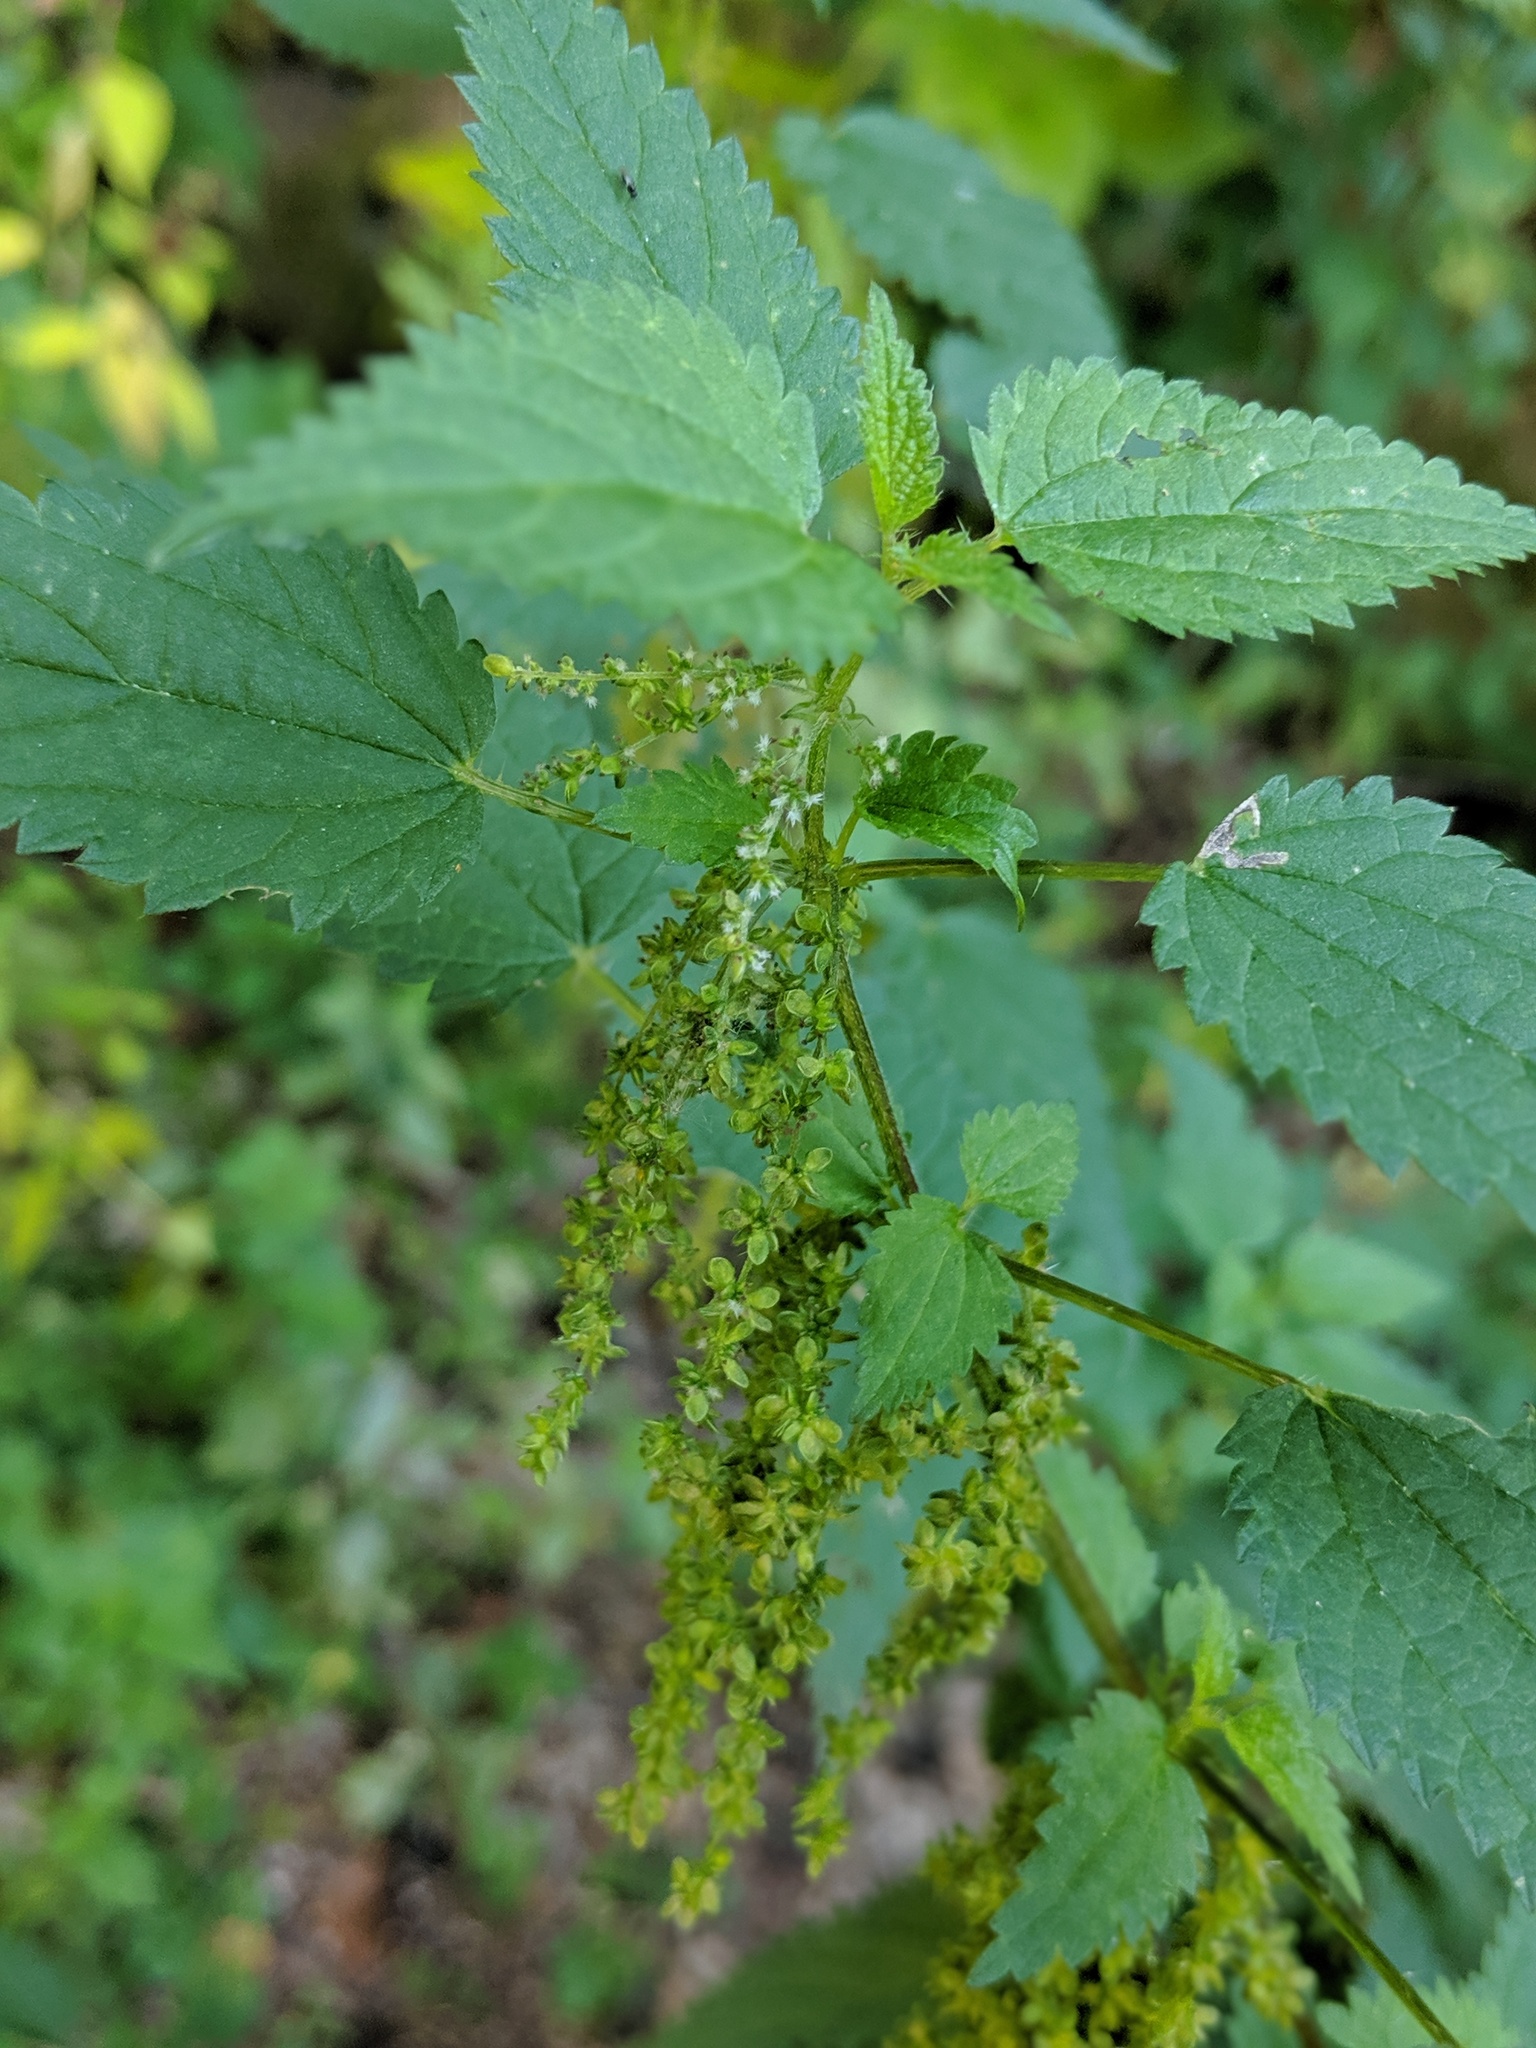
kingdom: Plantae
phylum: Tracheophyta
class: Magnoliopsida
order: Rosales
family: Urticaceae
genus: Urtica
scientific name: Urtica dioica
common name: Common nettle
